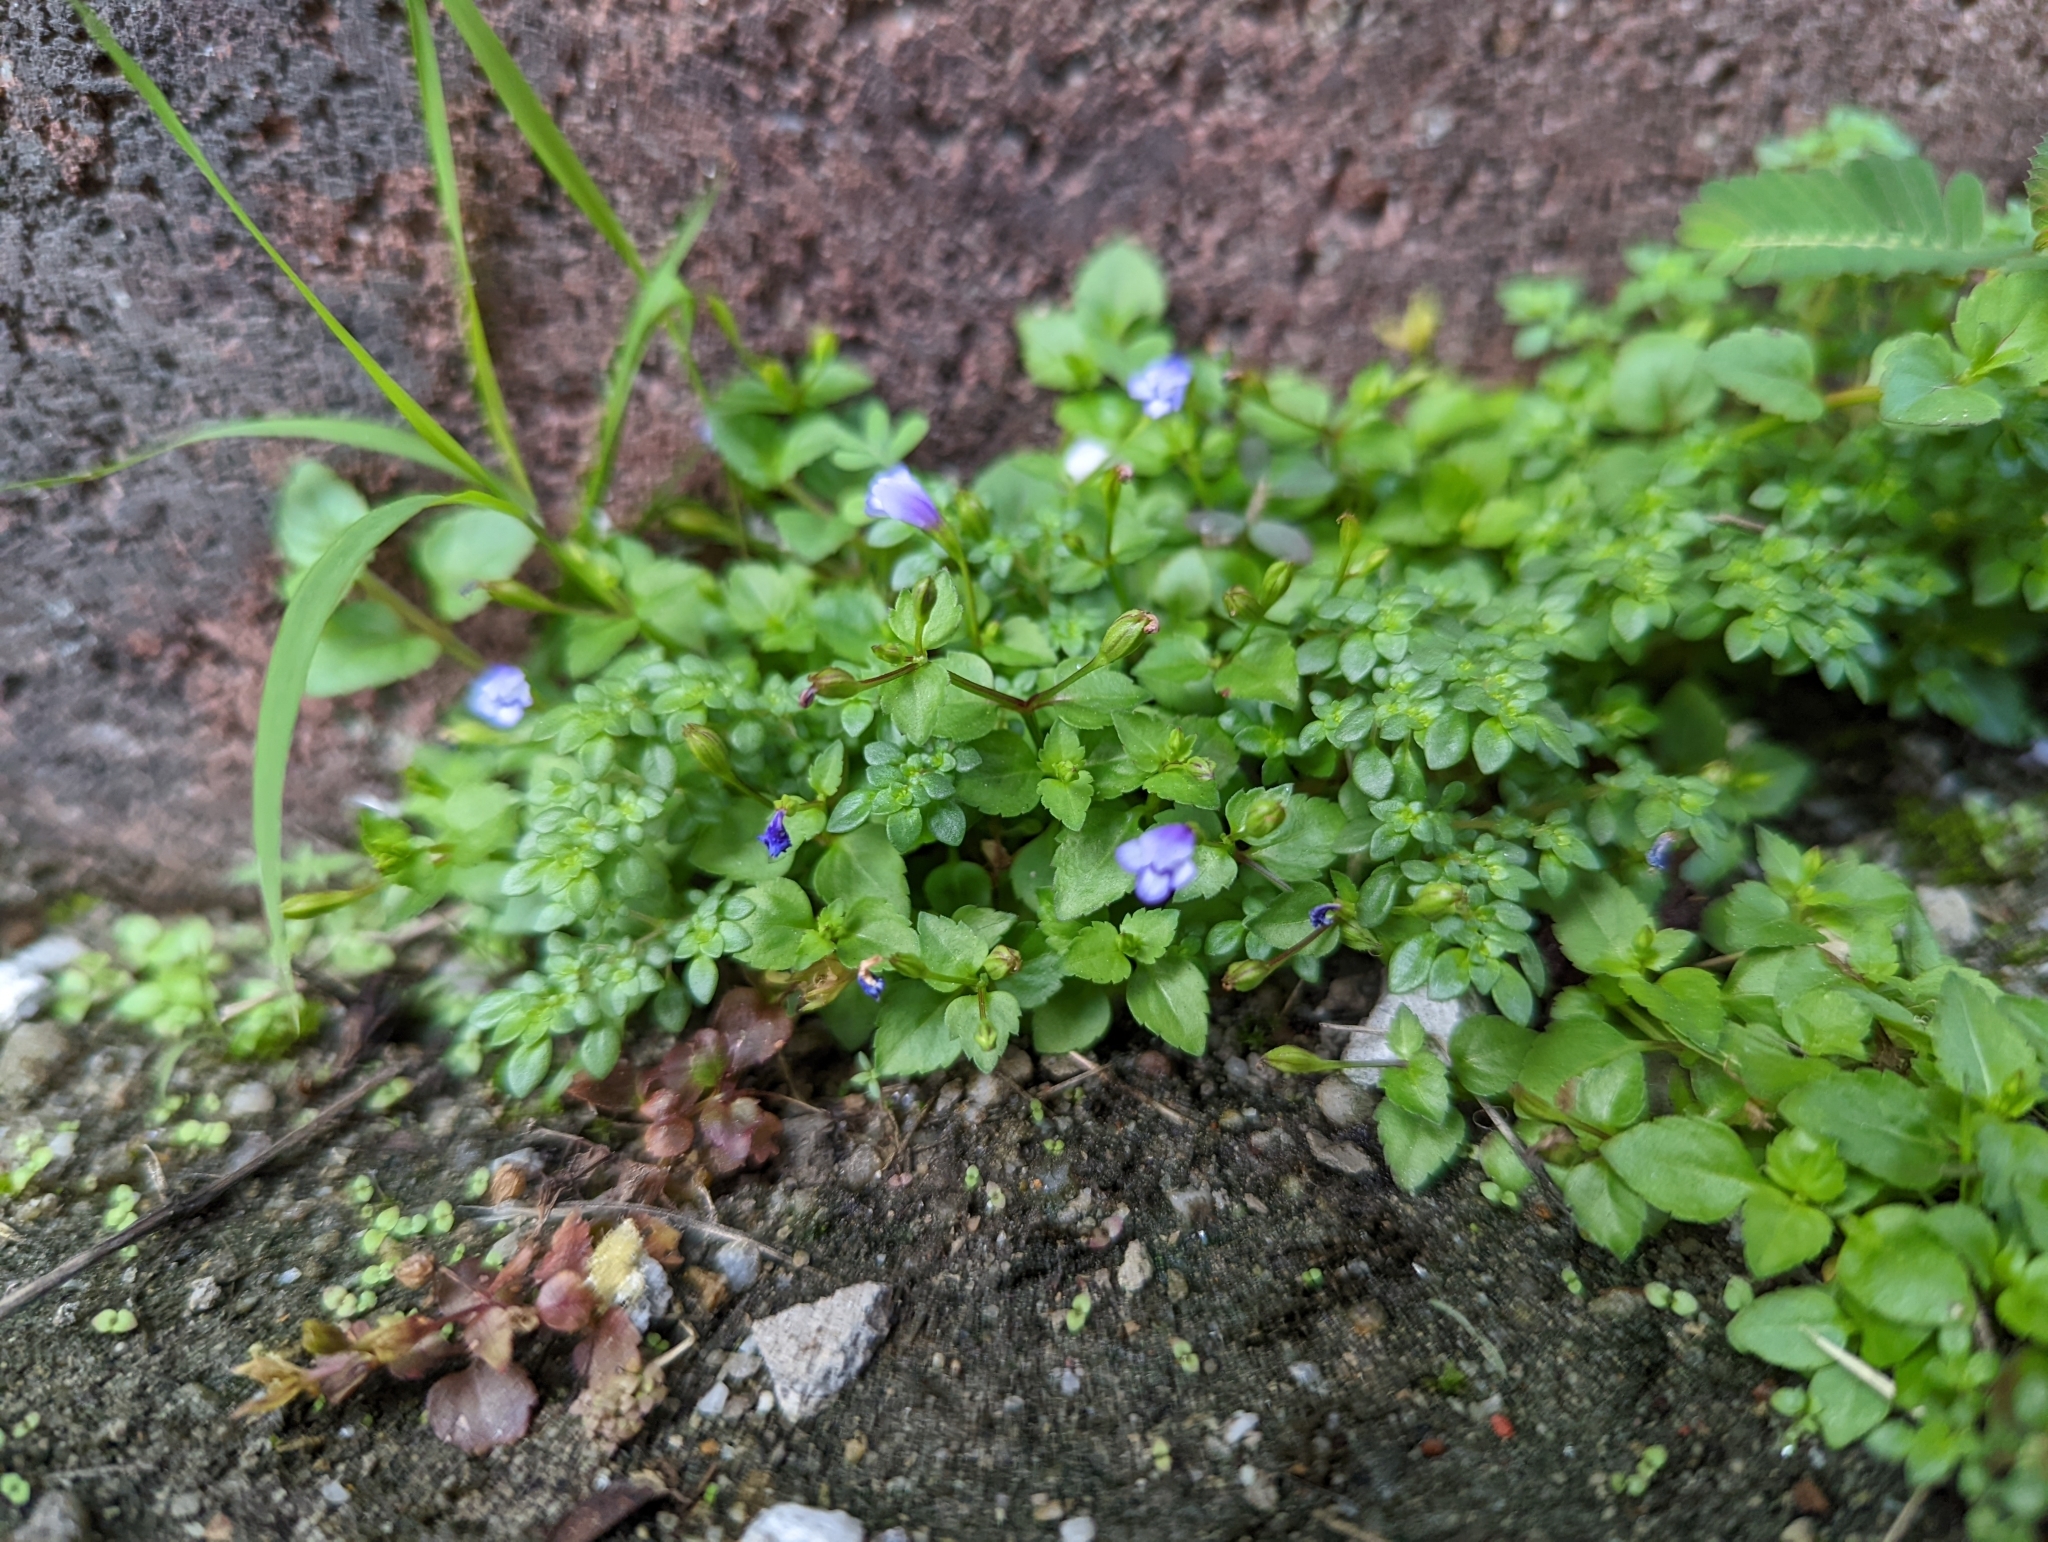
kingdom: Plantae
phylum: Tracheophyta
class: Magnoliopsida
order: Lamiales
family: Linderniaceae
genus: Torenia
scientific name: Torenia crustacea
